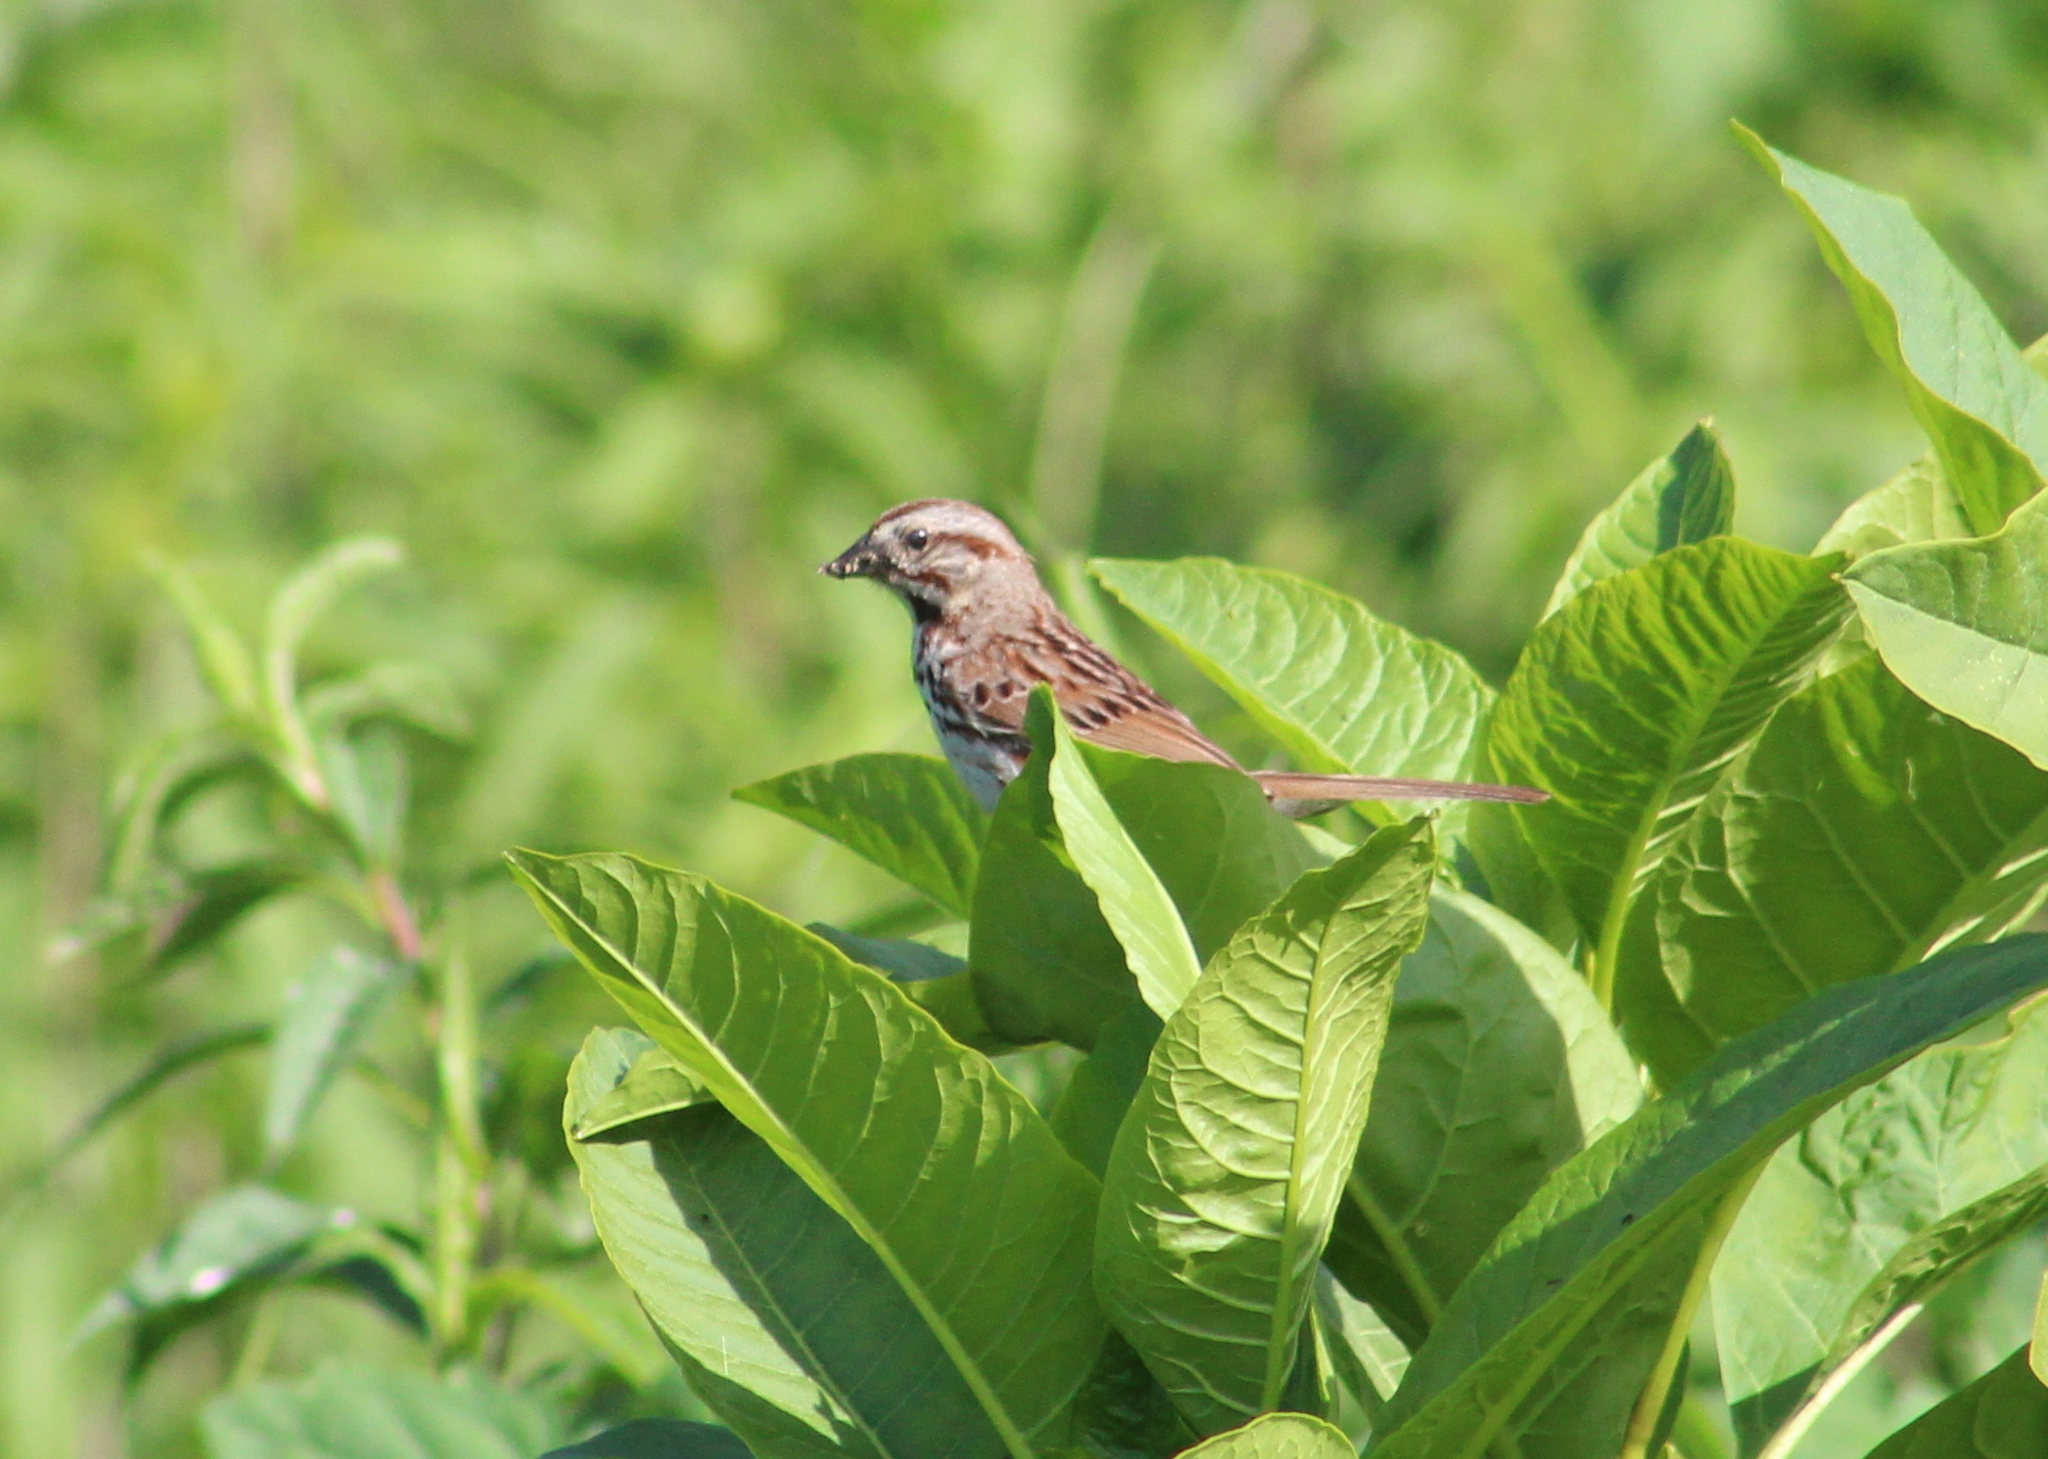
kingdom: Animalia
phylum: Chordata
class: Aves
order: Passeriformes
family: Passerellidae
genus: Melospiza
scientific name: Melospiza melodia
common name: Song sparrow
